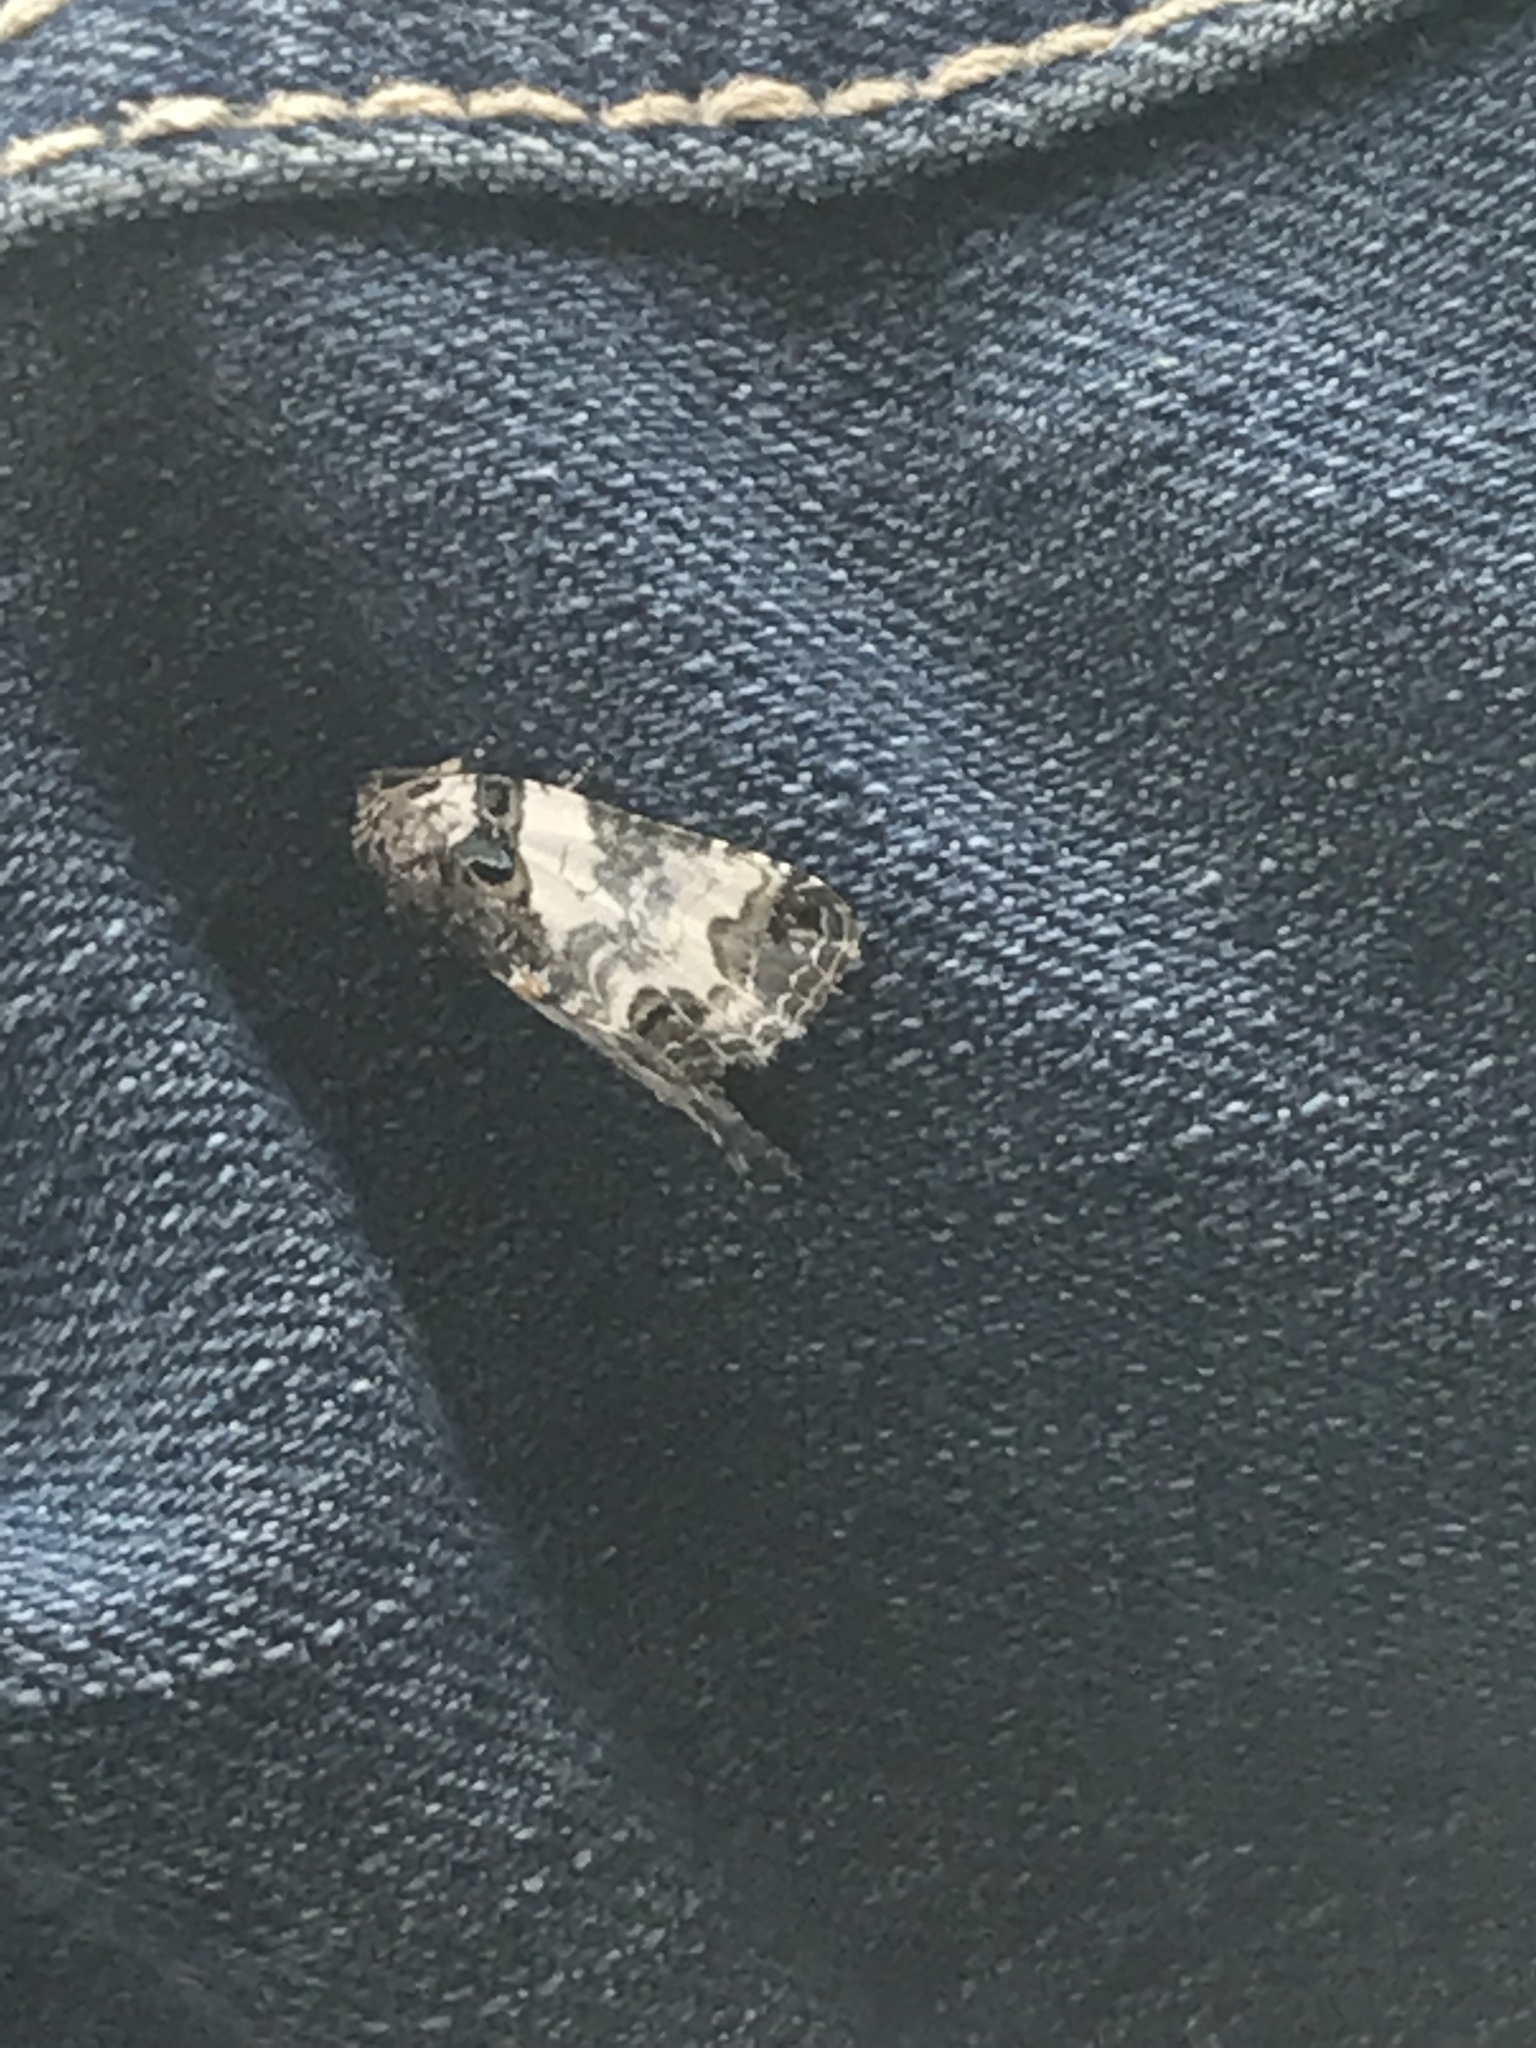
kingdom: Animalia
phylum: Arthropoda
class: Insecta
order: Lepidoptera
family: Noctuidae
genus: Cerma
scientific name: Cerma cerintha
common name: Tufted bird-dropping moth
